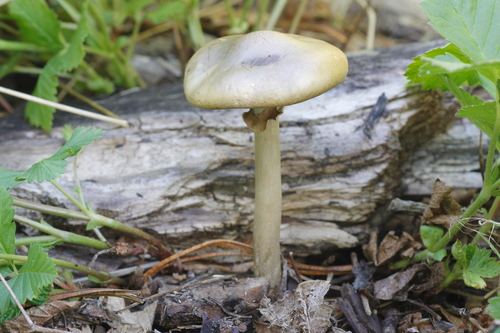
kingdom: Fungi
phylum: Basidiomycota
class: Agaricomycetes
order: Agaricales
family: Strophariaceae
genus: Agrocybe
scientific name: Agrocybe praecox
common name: Spring fieldcap
